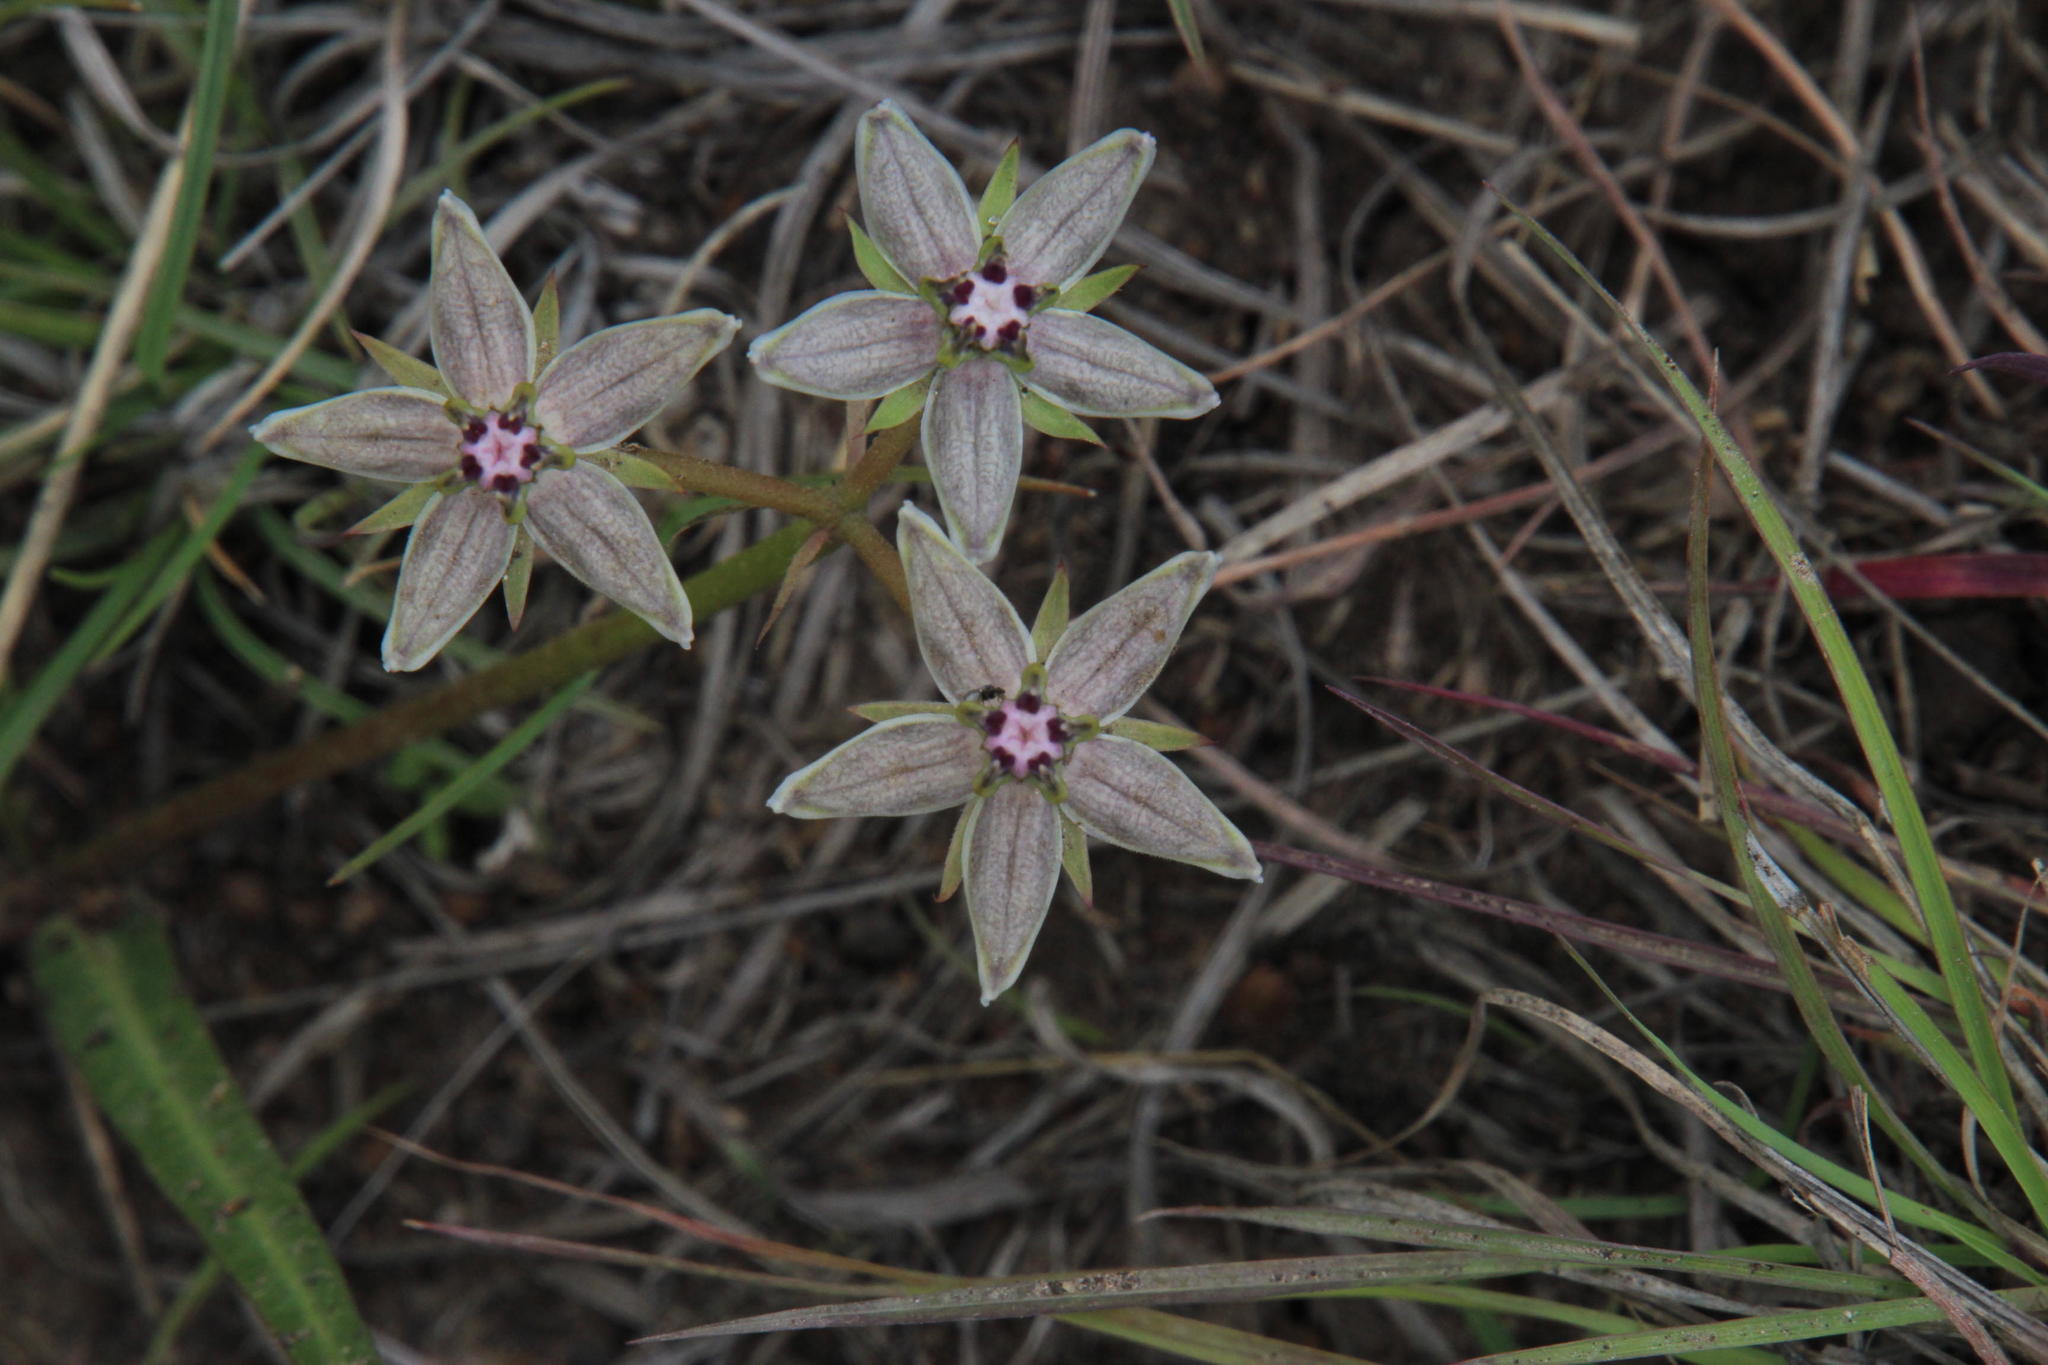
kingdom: Plantae
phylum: Tracheophyta
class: Magnoliopsida
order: Gentianales
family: Apocynaceae
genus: Asclepias
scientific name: Asclepias gibba
